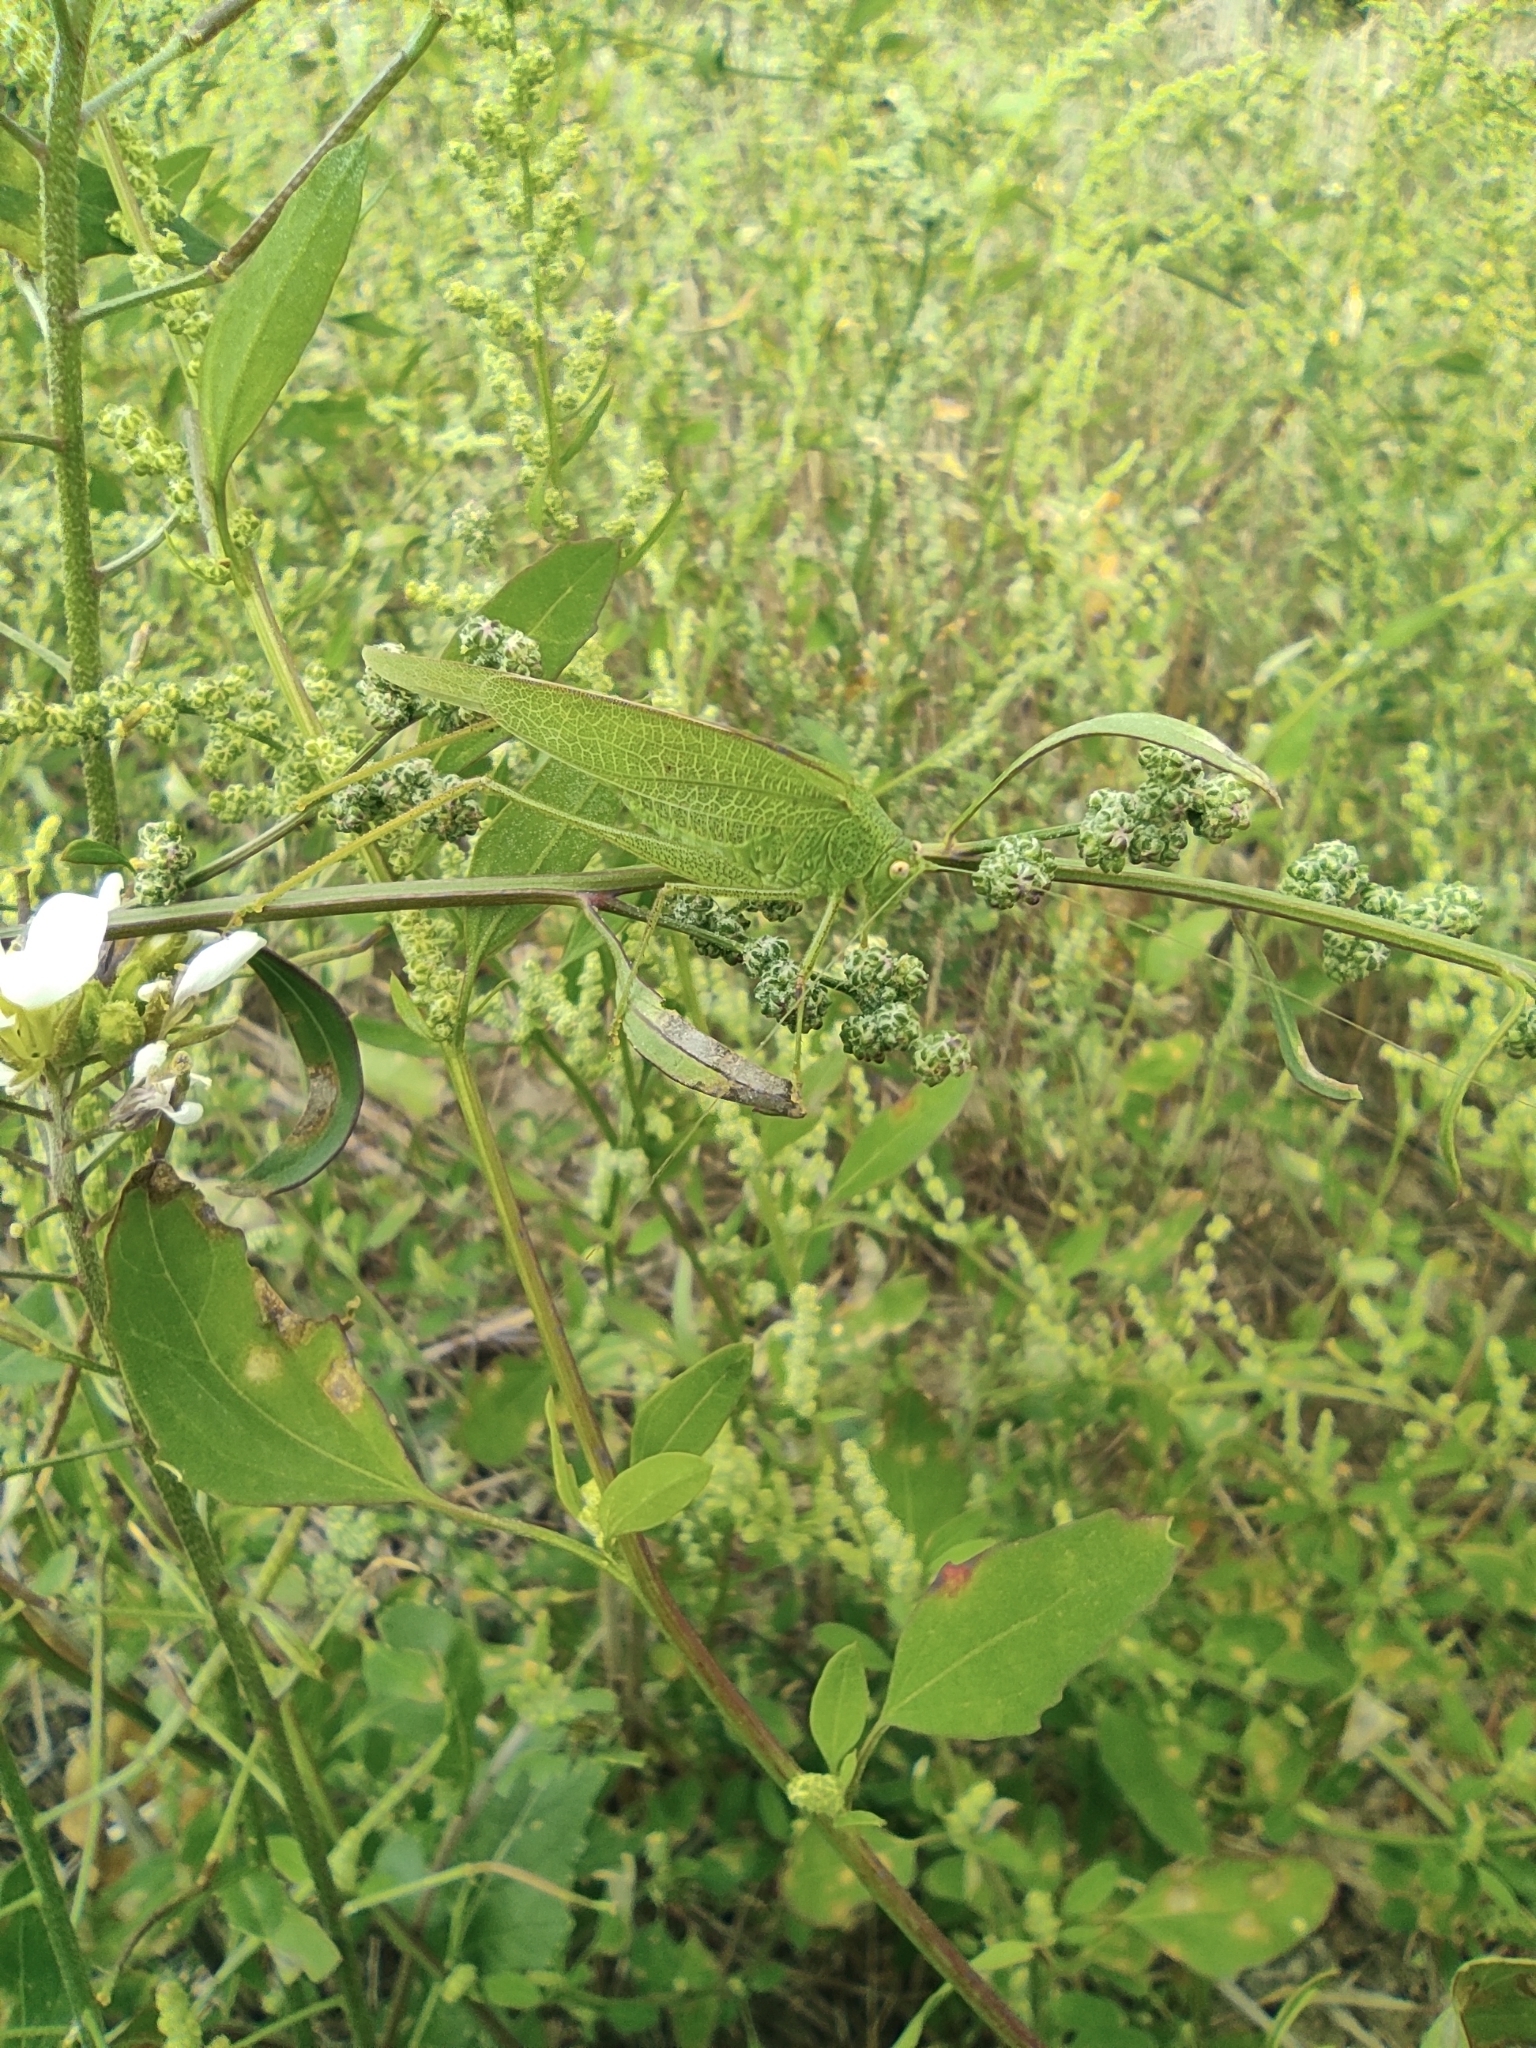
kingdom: Animalia
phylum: Arthropoda
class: Insecta
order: Orthoptera
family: Tettigoniidae
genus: Phaneroptera
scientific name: Phaneroptera nana
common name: Southern sickle bush-cricket
